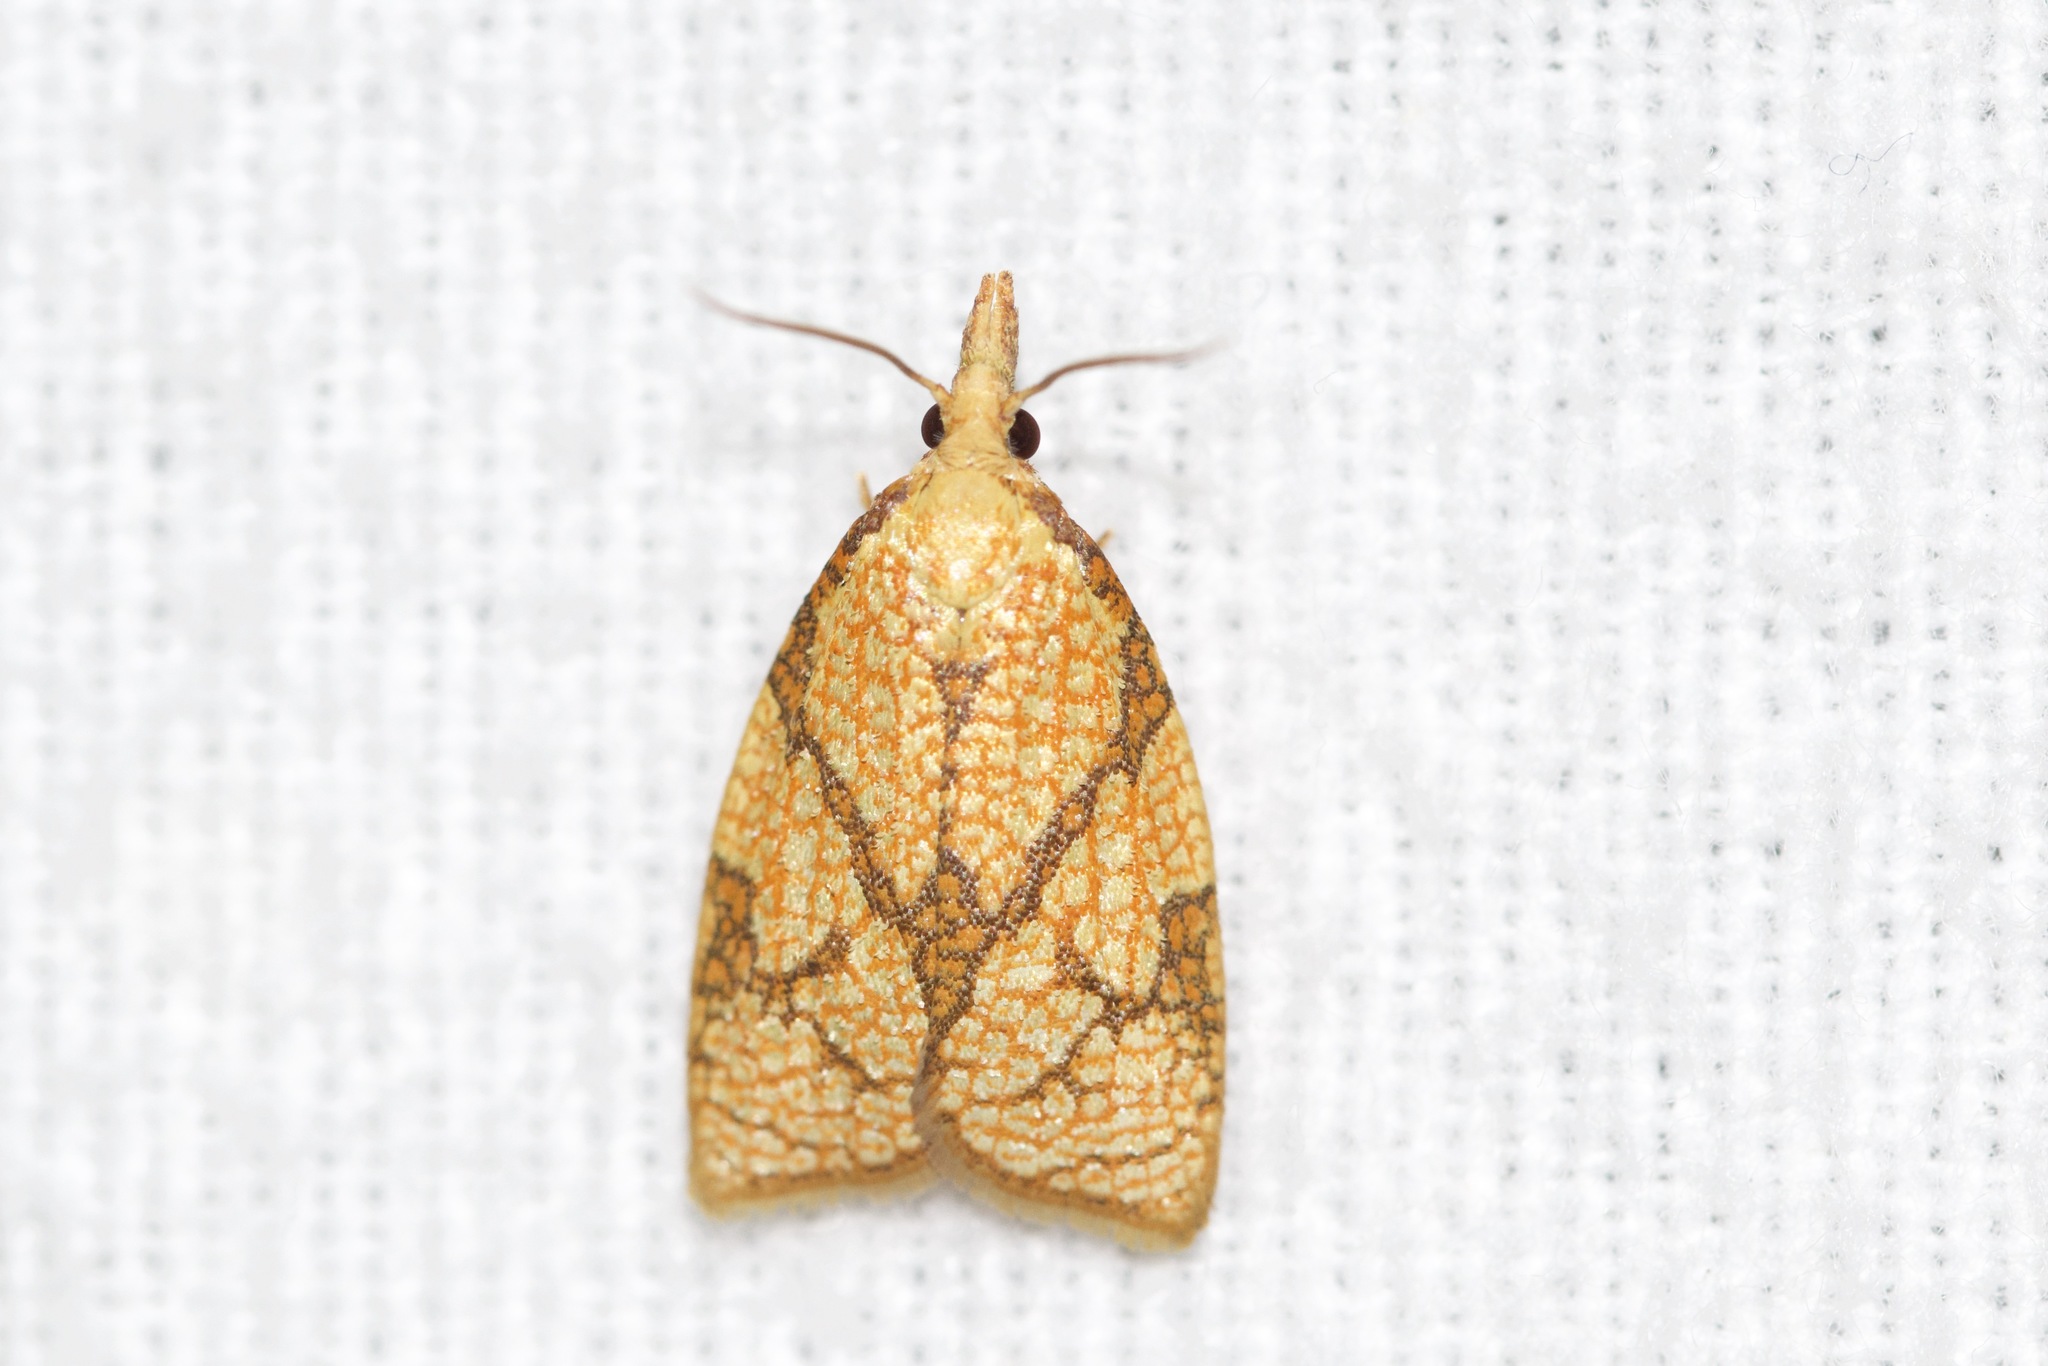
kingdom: Animalia
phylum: Arthropoda
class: Insecta
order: Lepidoptera
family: Tortricidae
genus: Cenopis
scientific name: Cenopis reticulatana
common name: Reticulated fruitworm moth
